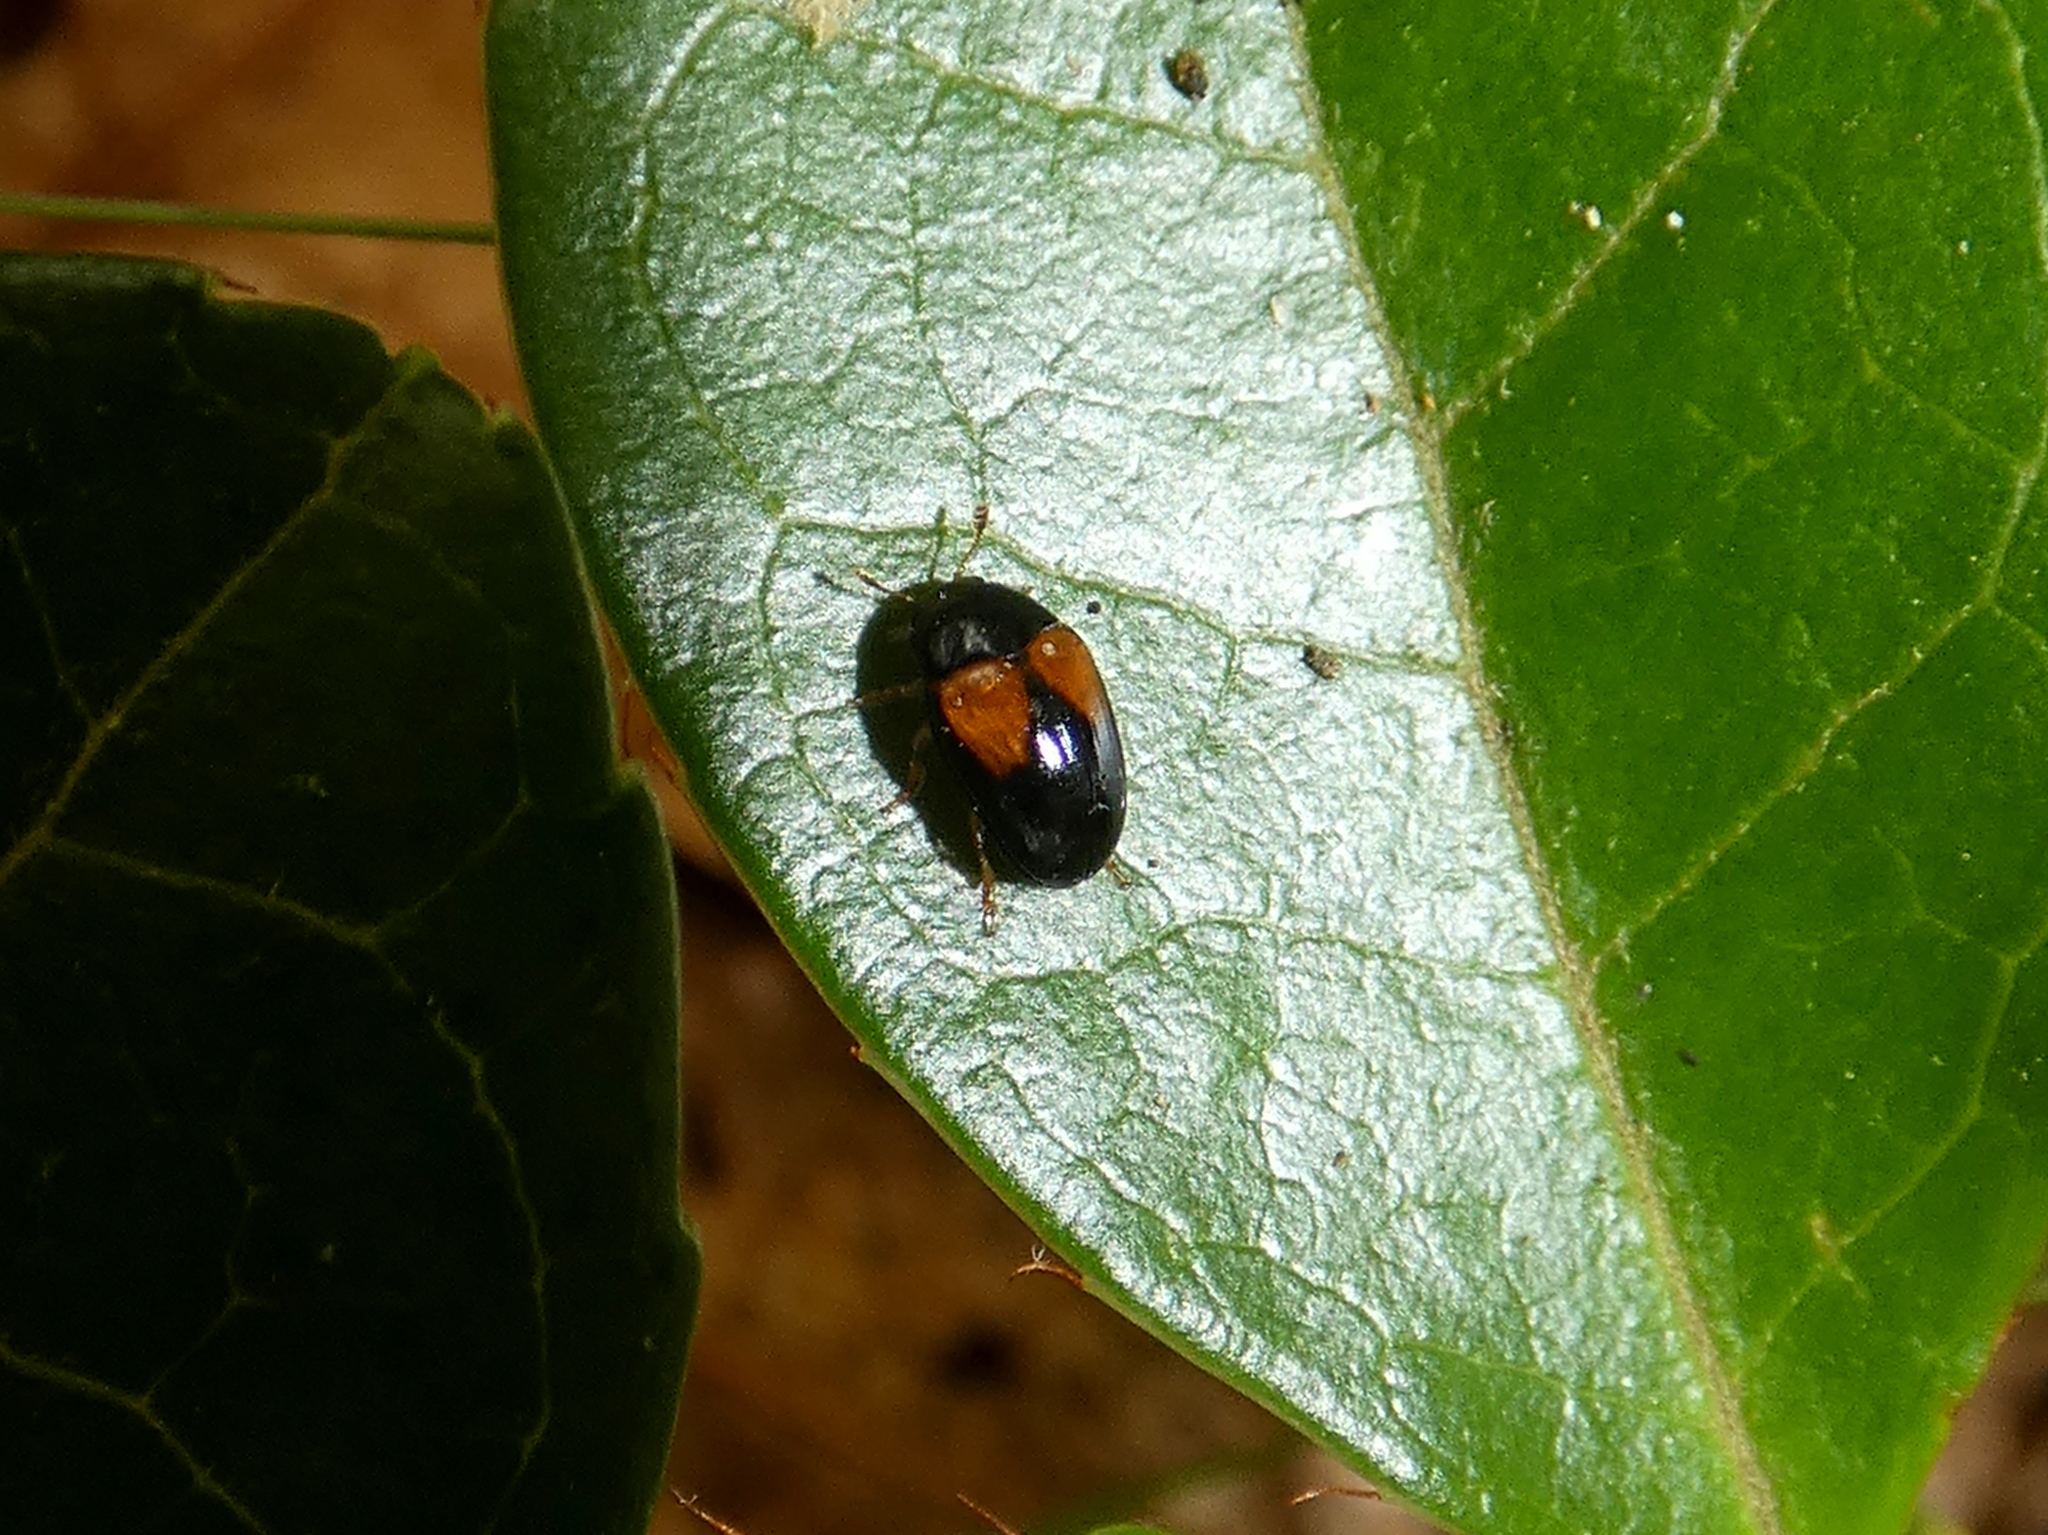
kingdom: Animalia
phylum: Arthropoda
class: Insecta
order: Coleoptera
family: Erotylidae
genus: Tritoma
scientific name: Tritoma biguttata
